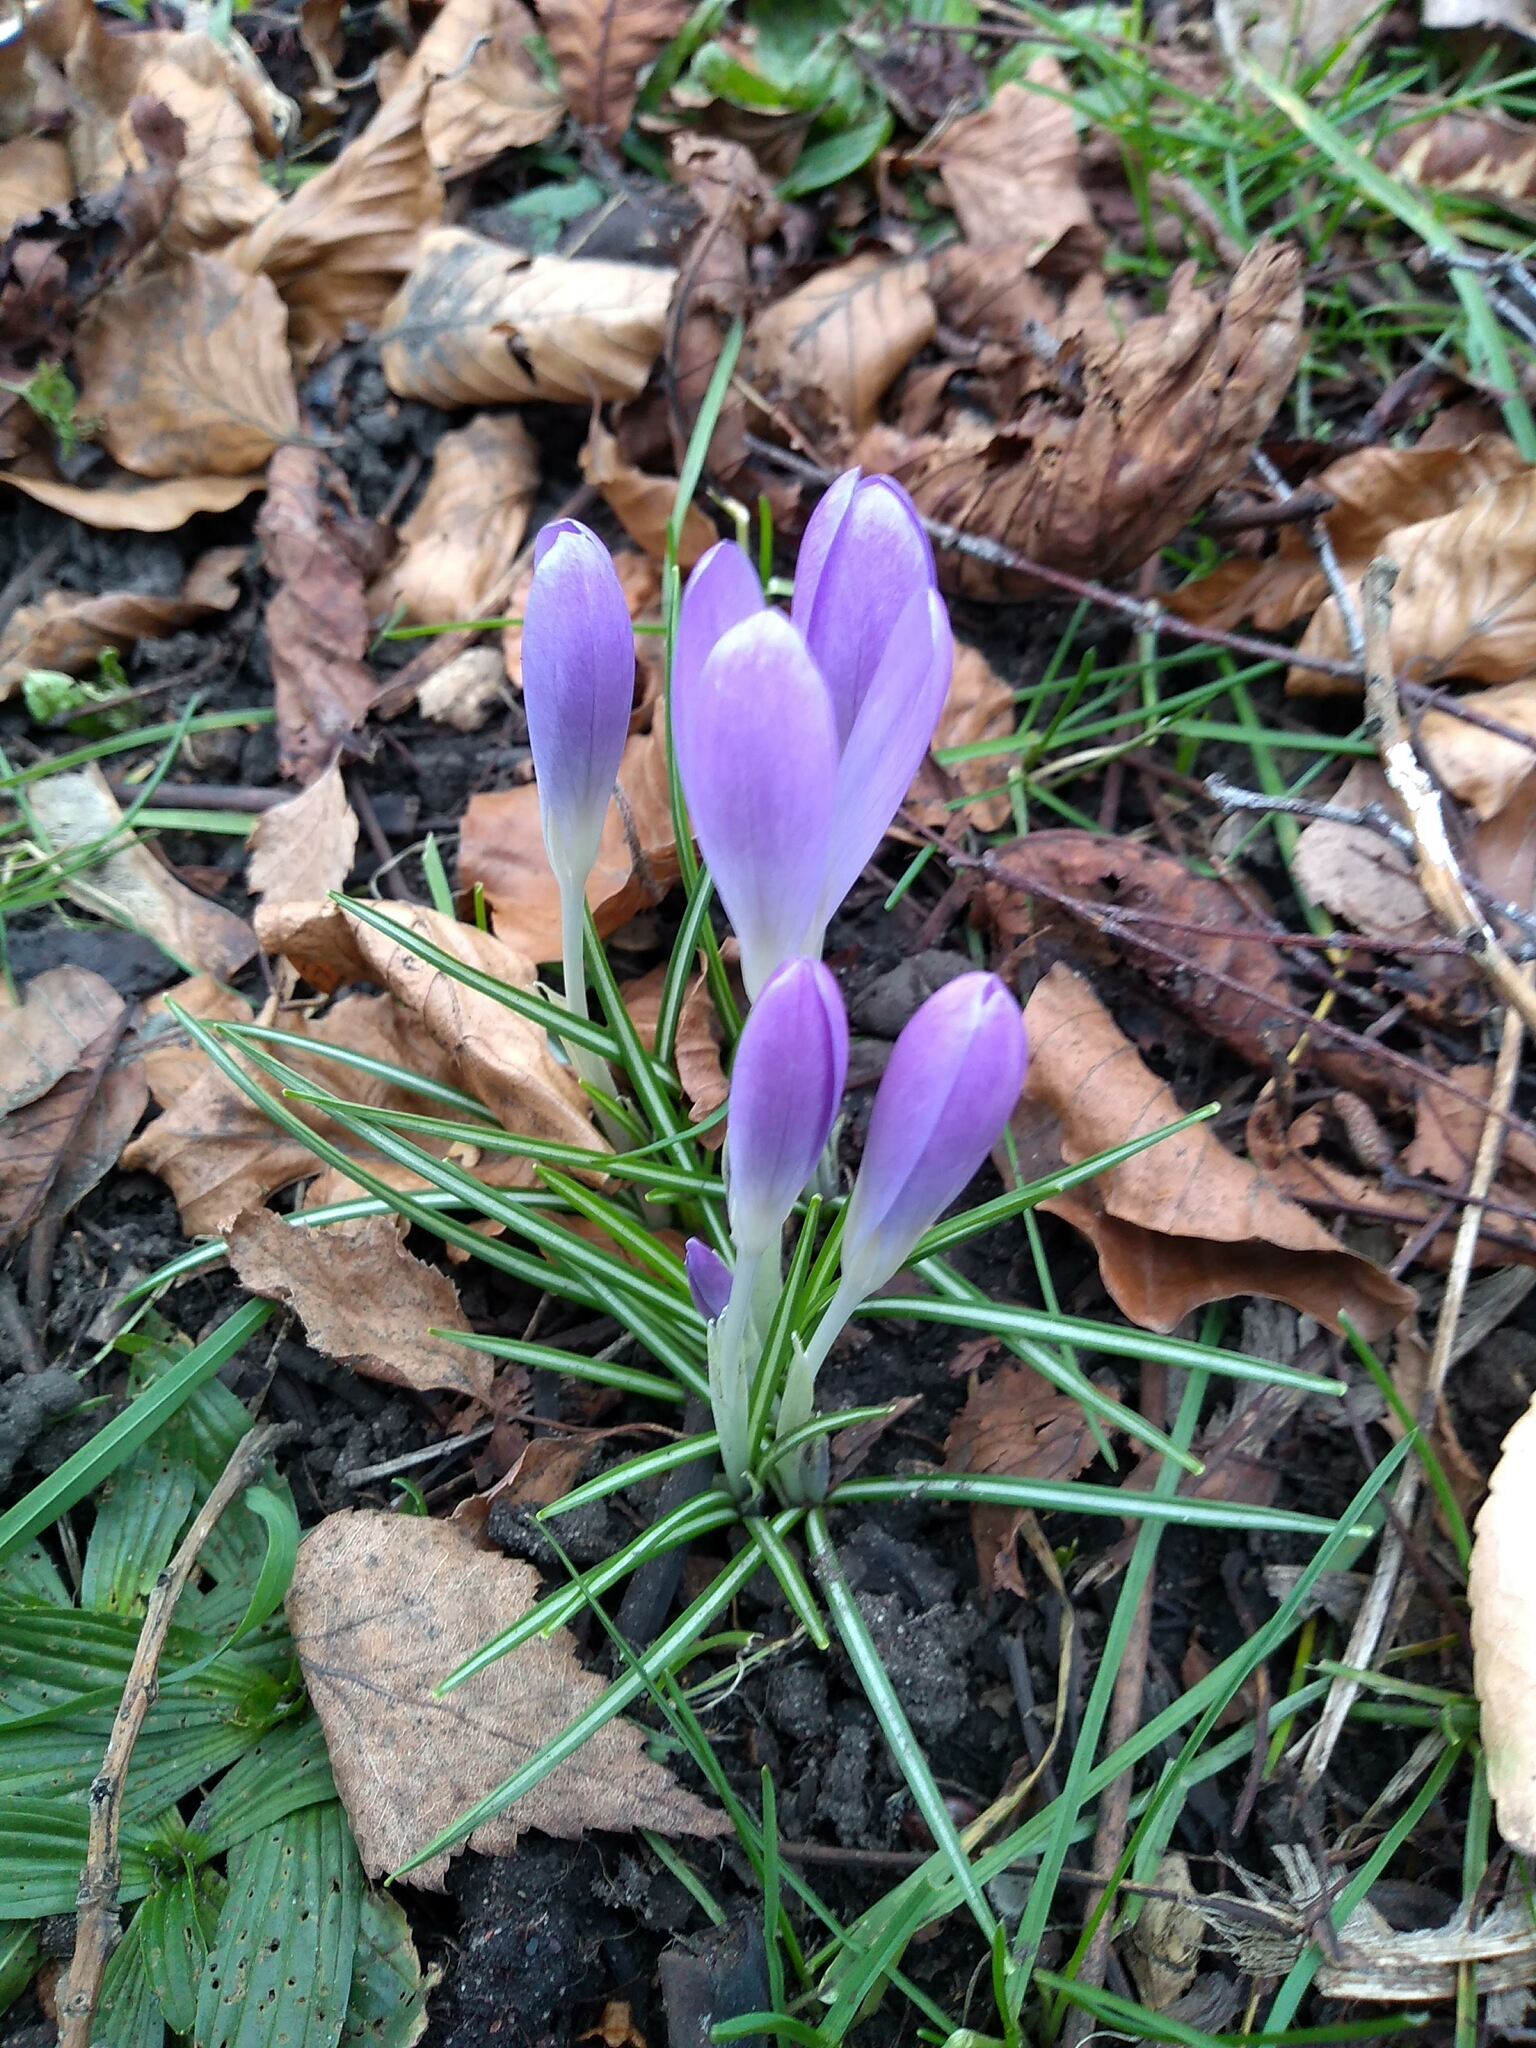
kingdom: Plantae
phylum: Tracheophyta
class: Liliopsida
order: Asparagales
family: Iridaceae
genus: Crocus
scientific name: Crocus tommasinianus
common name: Early crocus
